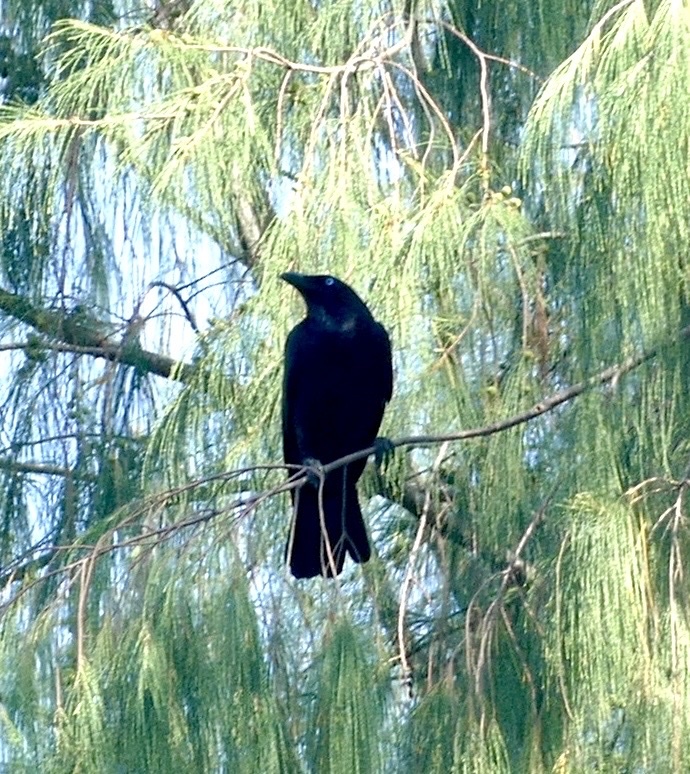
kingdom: Animalia
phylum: Chordata
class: Aves
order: Passeriformes
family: Corvidae
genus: Corvus
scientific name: Corvus orru
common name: Torresian crow
